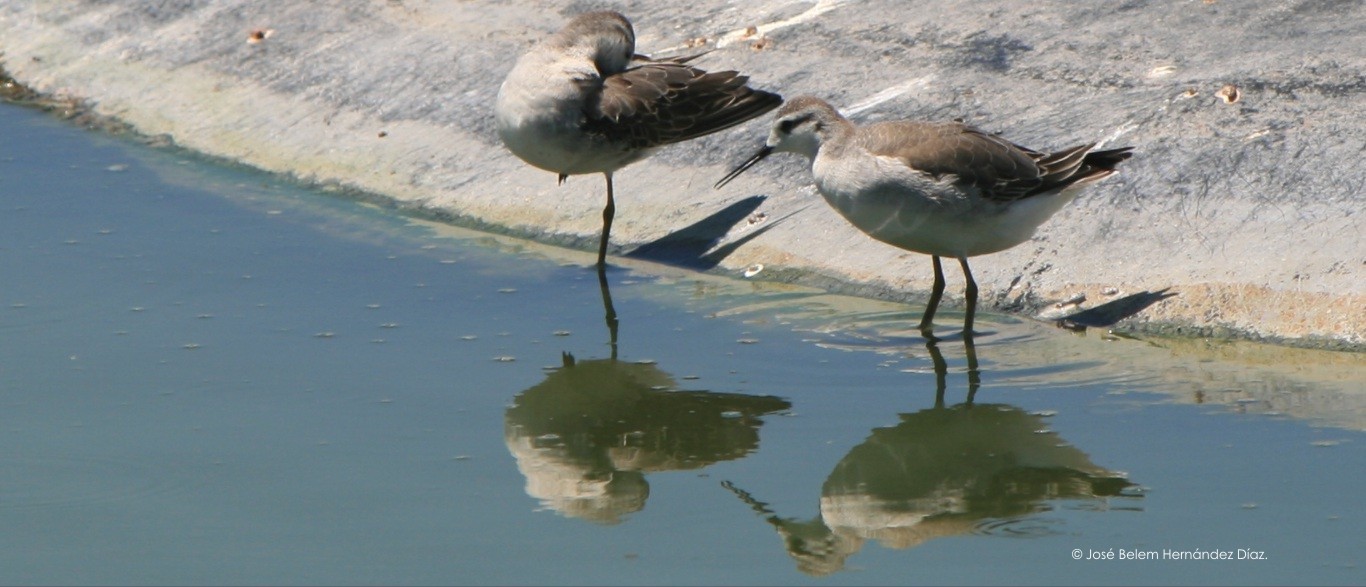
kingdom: Animalia
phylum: Chordata
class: Aves
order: Charadriiformes
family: Scolopacidae
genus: Phalaropus
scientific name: Phalaropus tricolor
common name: Wilson's phalarope
